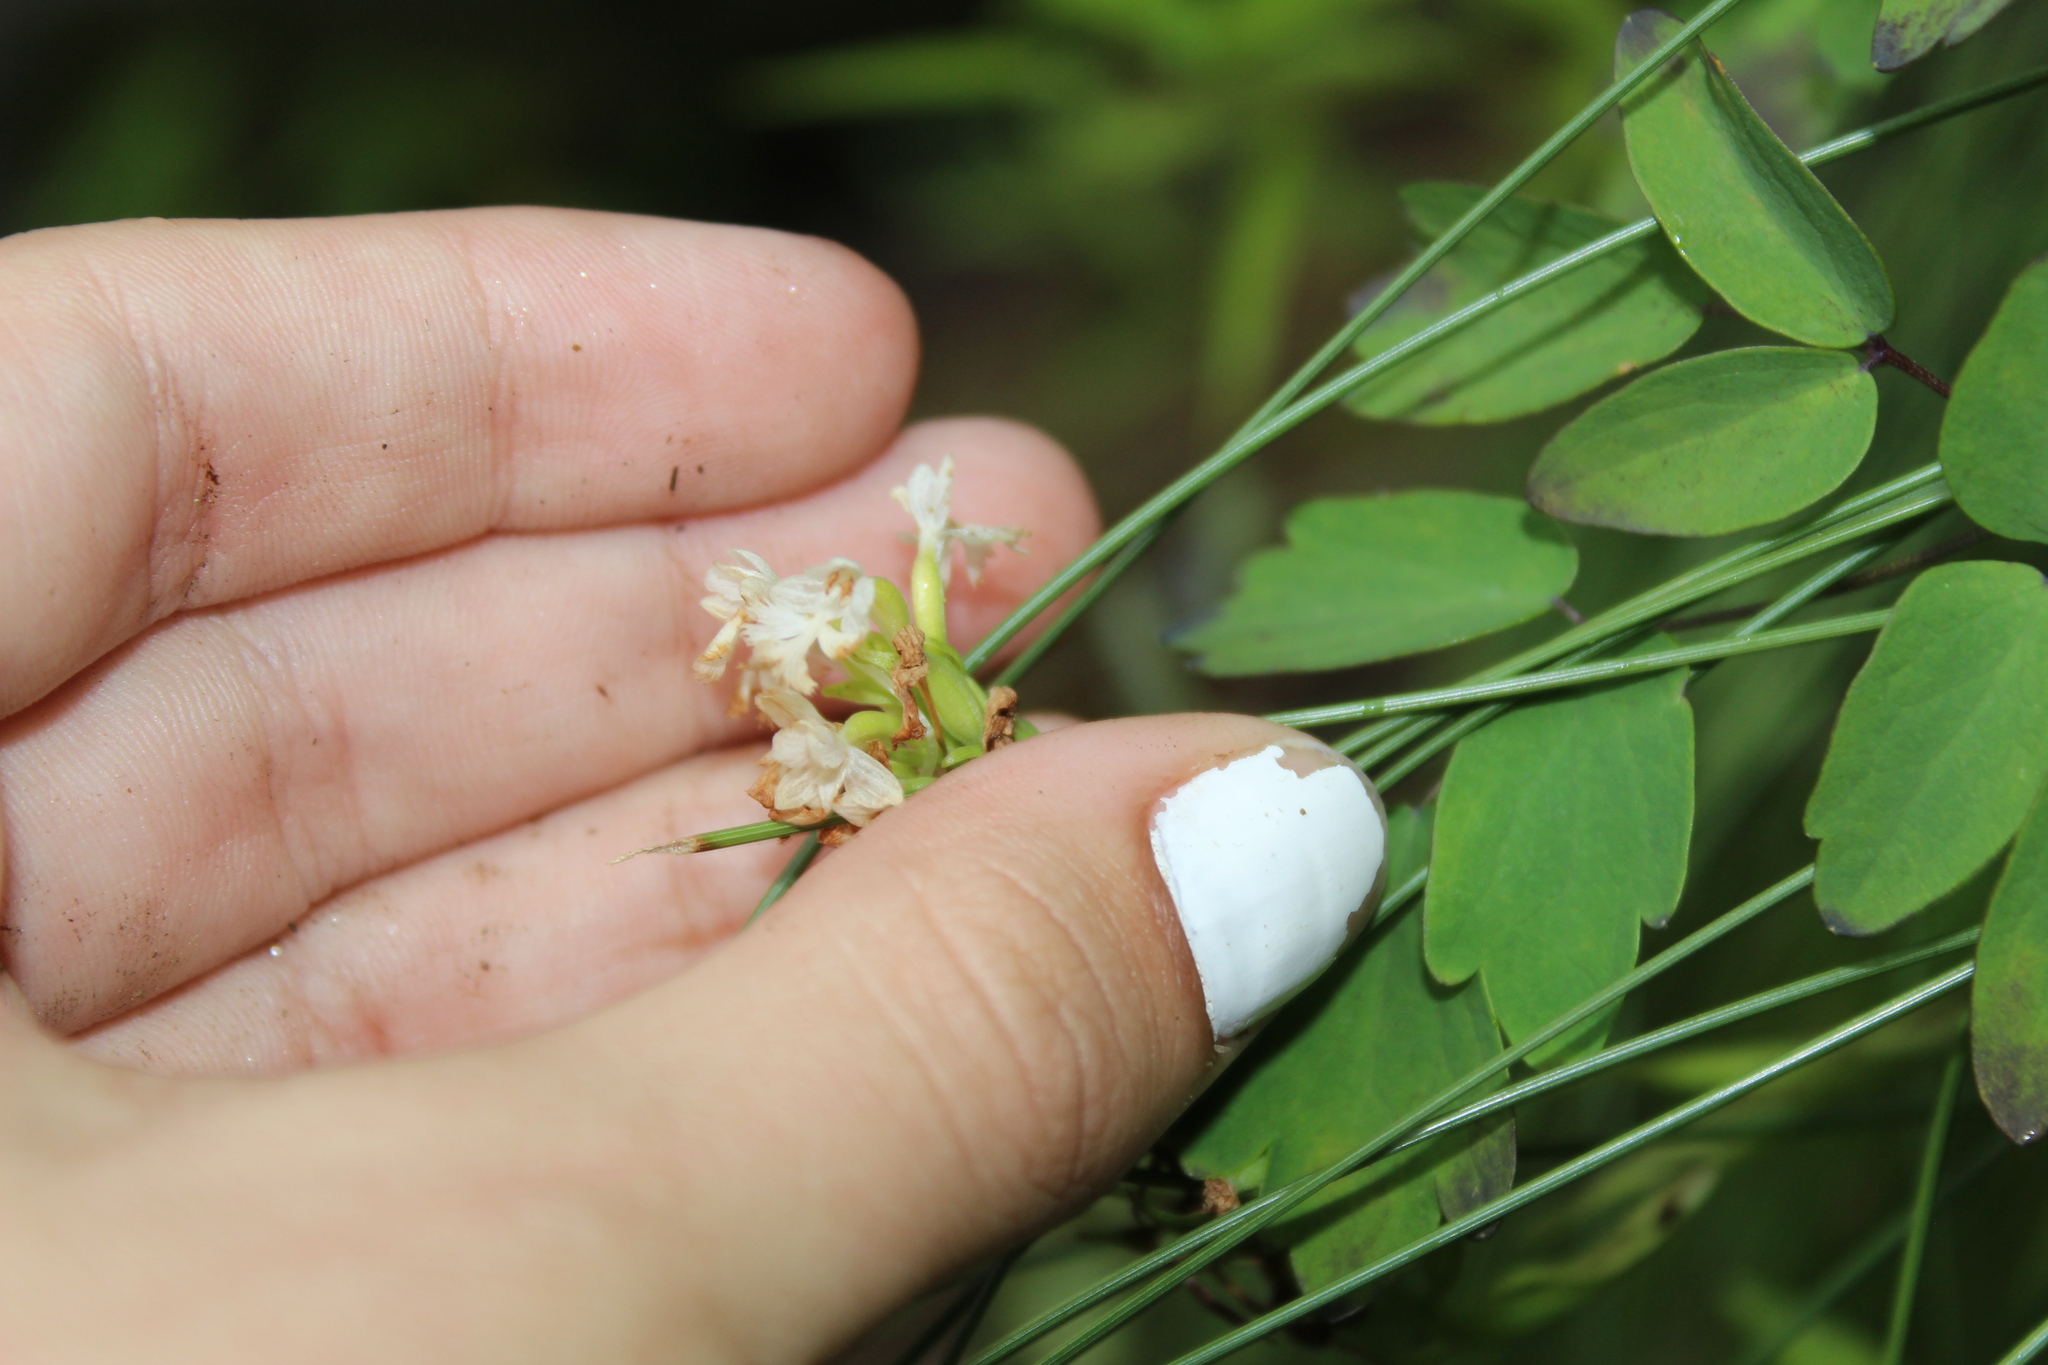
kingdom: Plantae
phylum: Tracheophyta
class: Liliopsida
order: Asparagales
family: Orchidaceae
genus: Platanthera
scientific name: Platanthera psycodes
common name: Lesser purple fringed orchid
